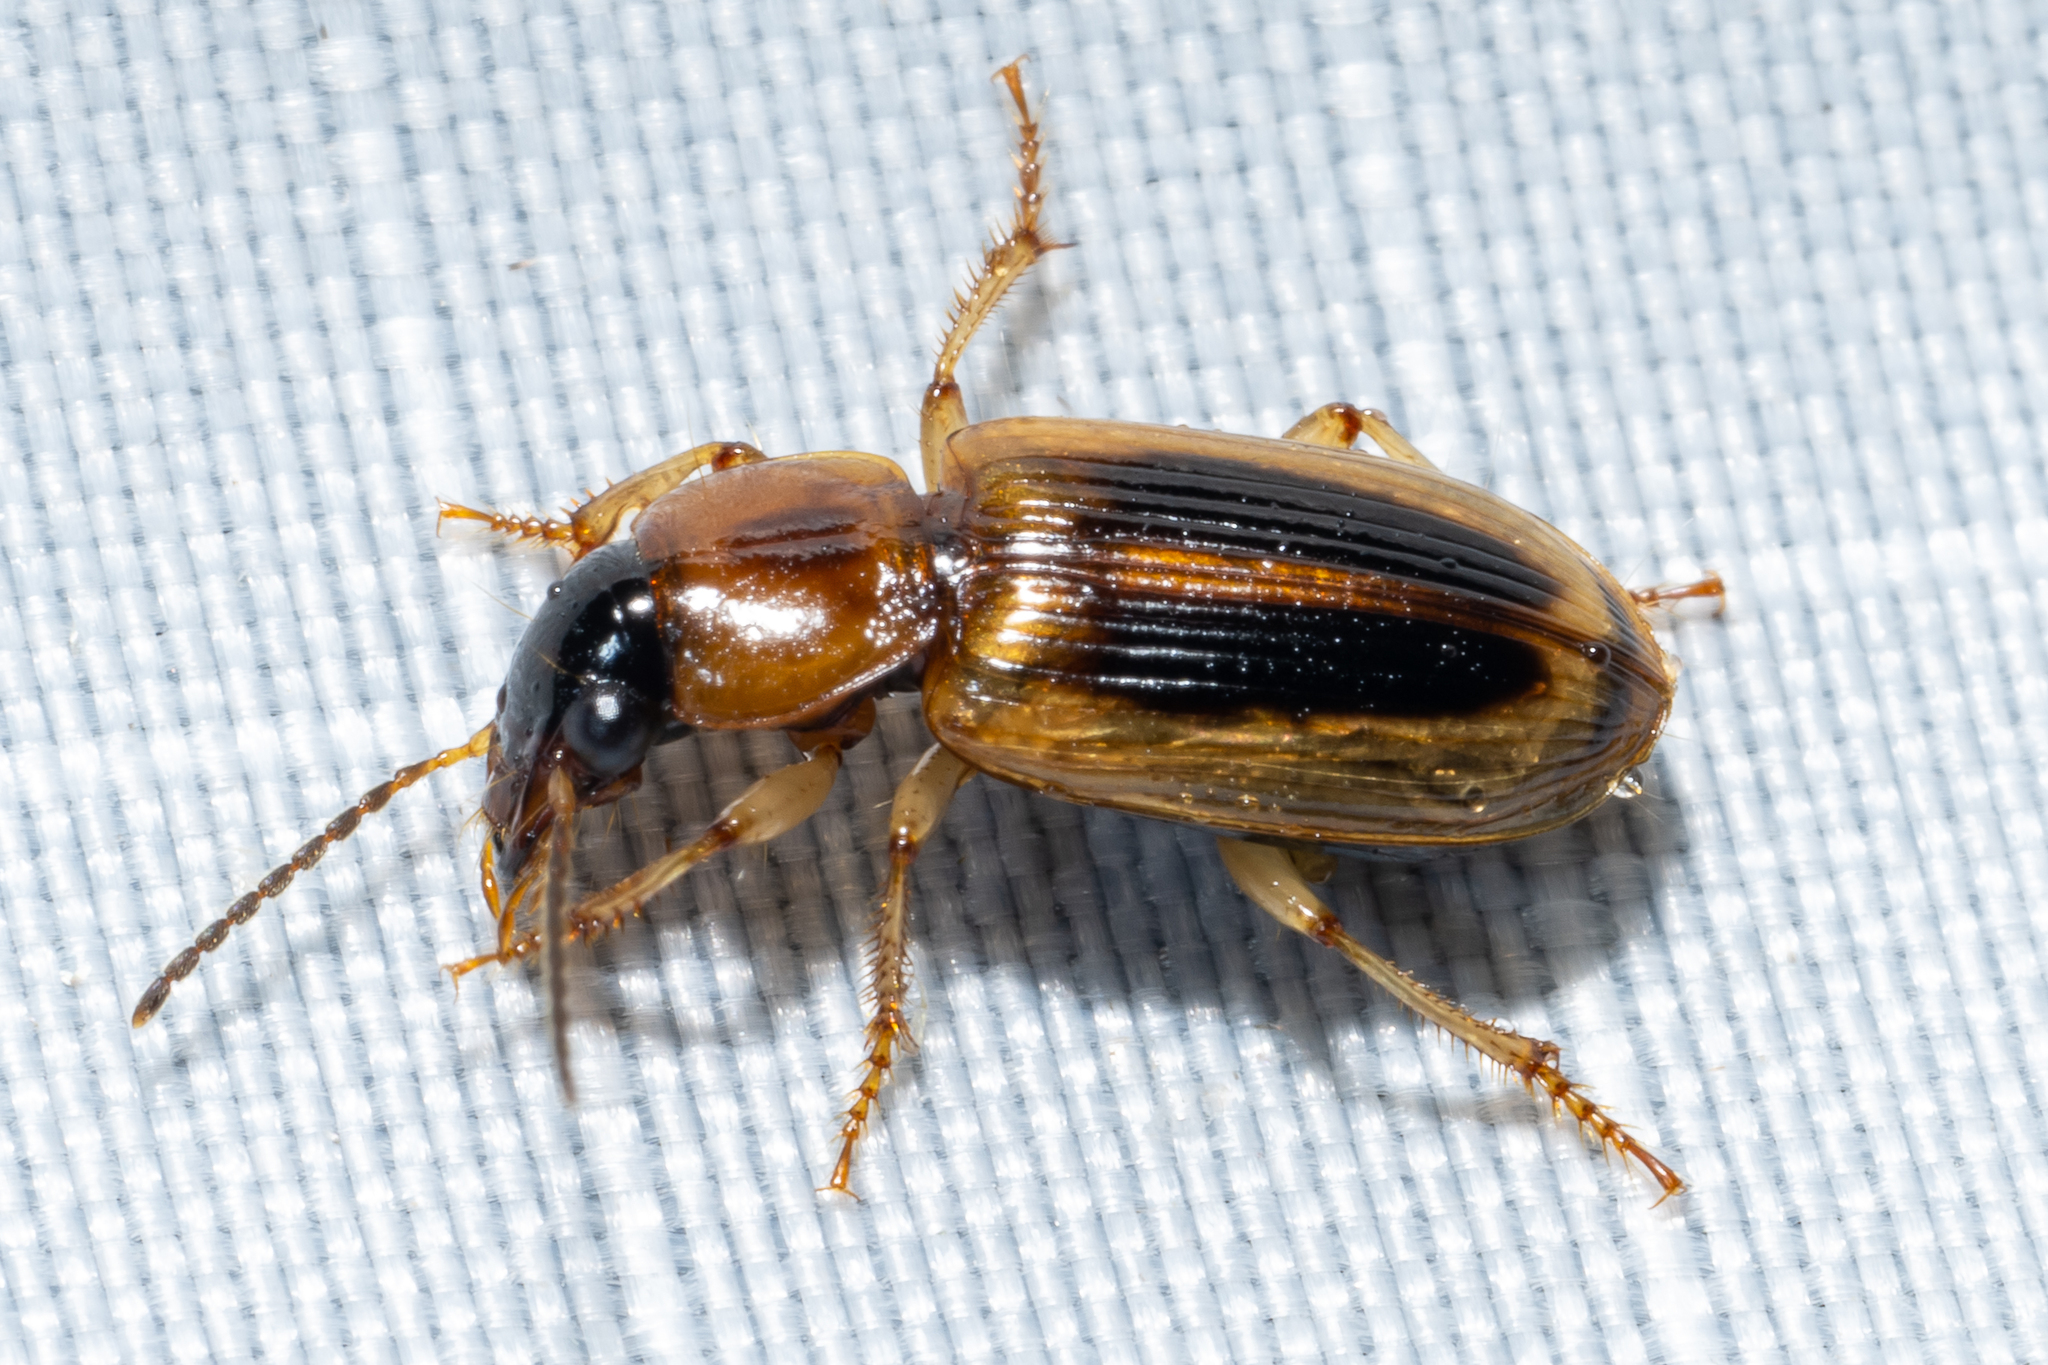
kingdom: Animalia
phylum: Arthropoda
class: Insecta
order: Coleoptera
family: Carabidae
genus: Stenolophus
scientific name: Stenolophus lecontei
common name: Leconte's seedcorn beetle
